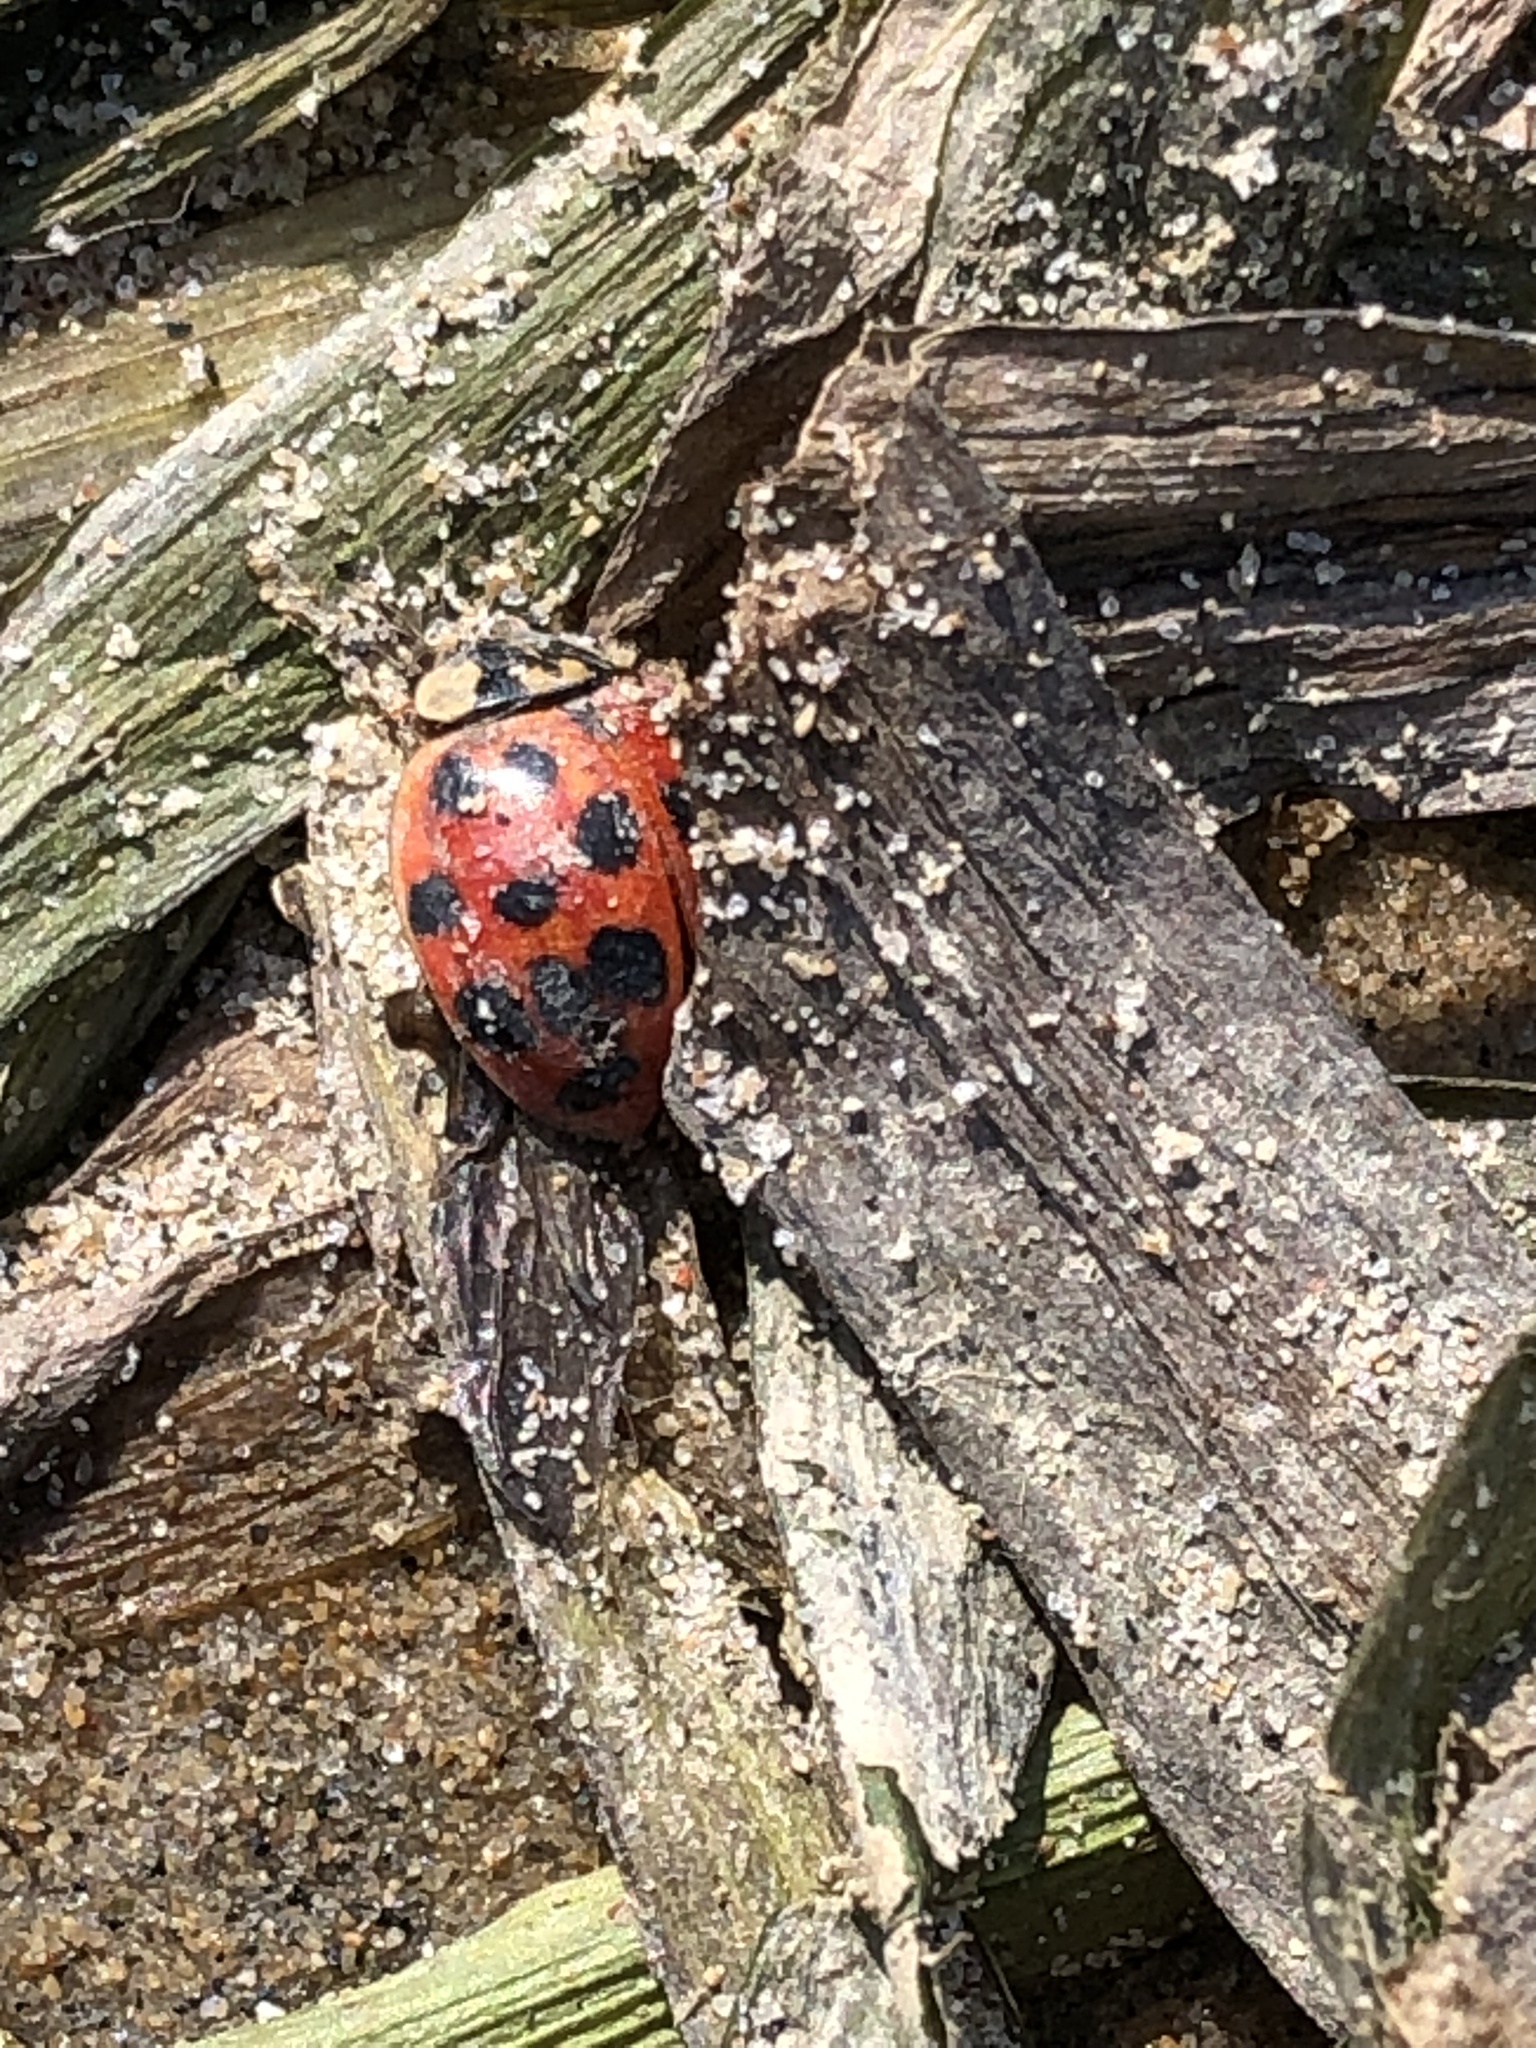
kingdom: Animalia
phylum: Arthropoda
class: Insecta
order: Coleoptera
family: Coccinellidae
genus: Harmonia
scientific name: Harmonia axyridis
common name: Harlequin ladybird
